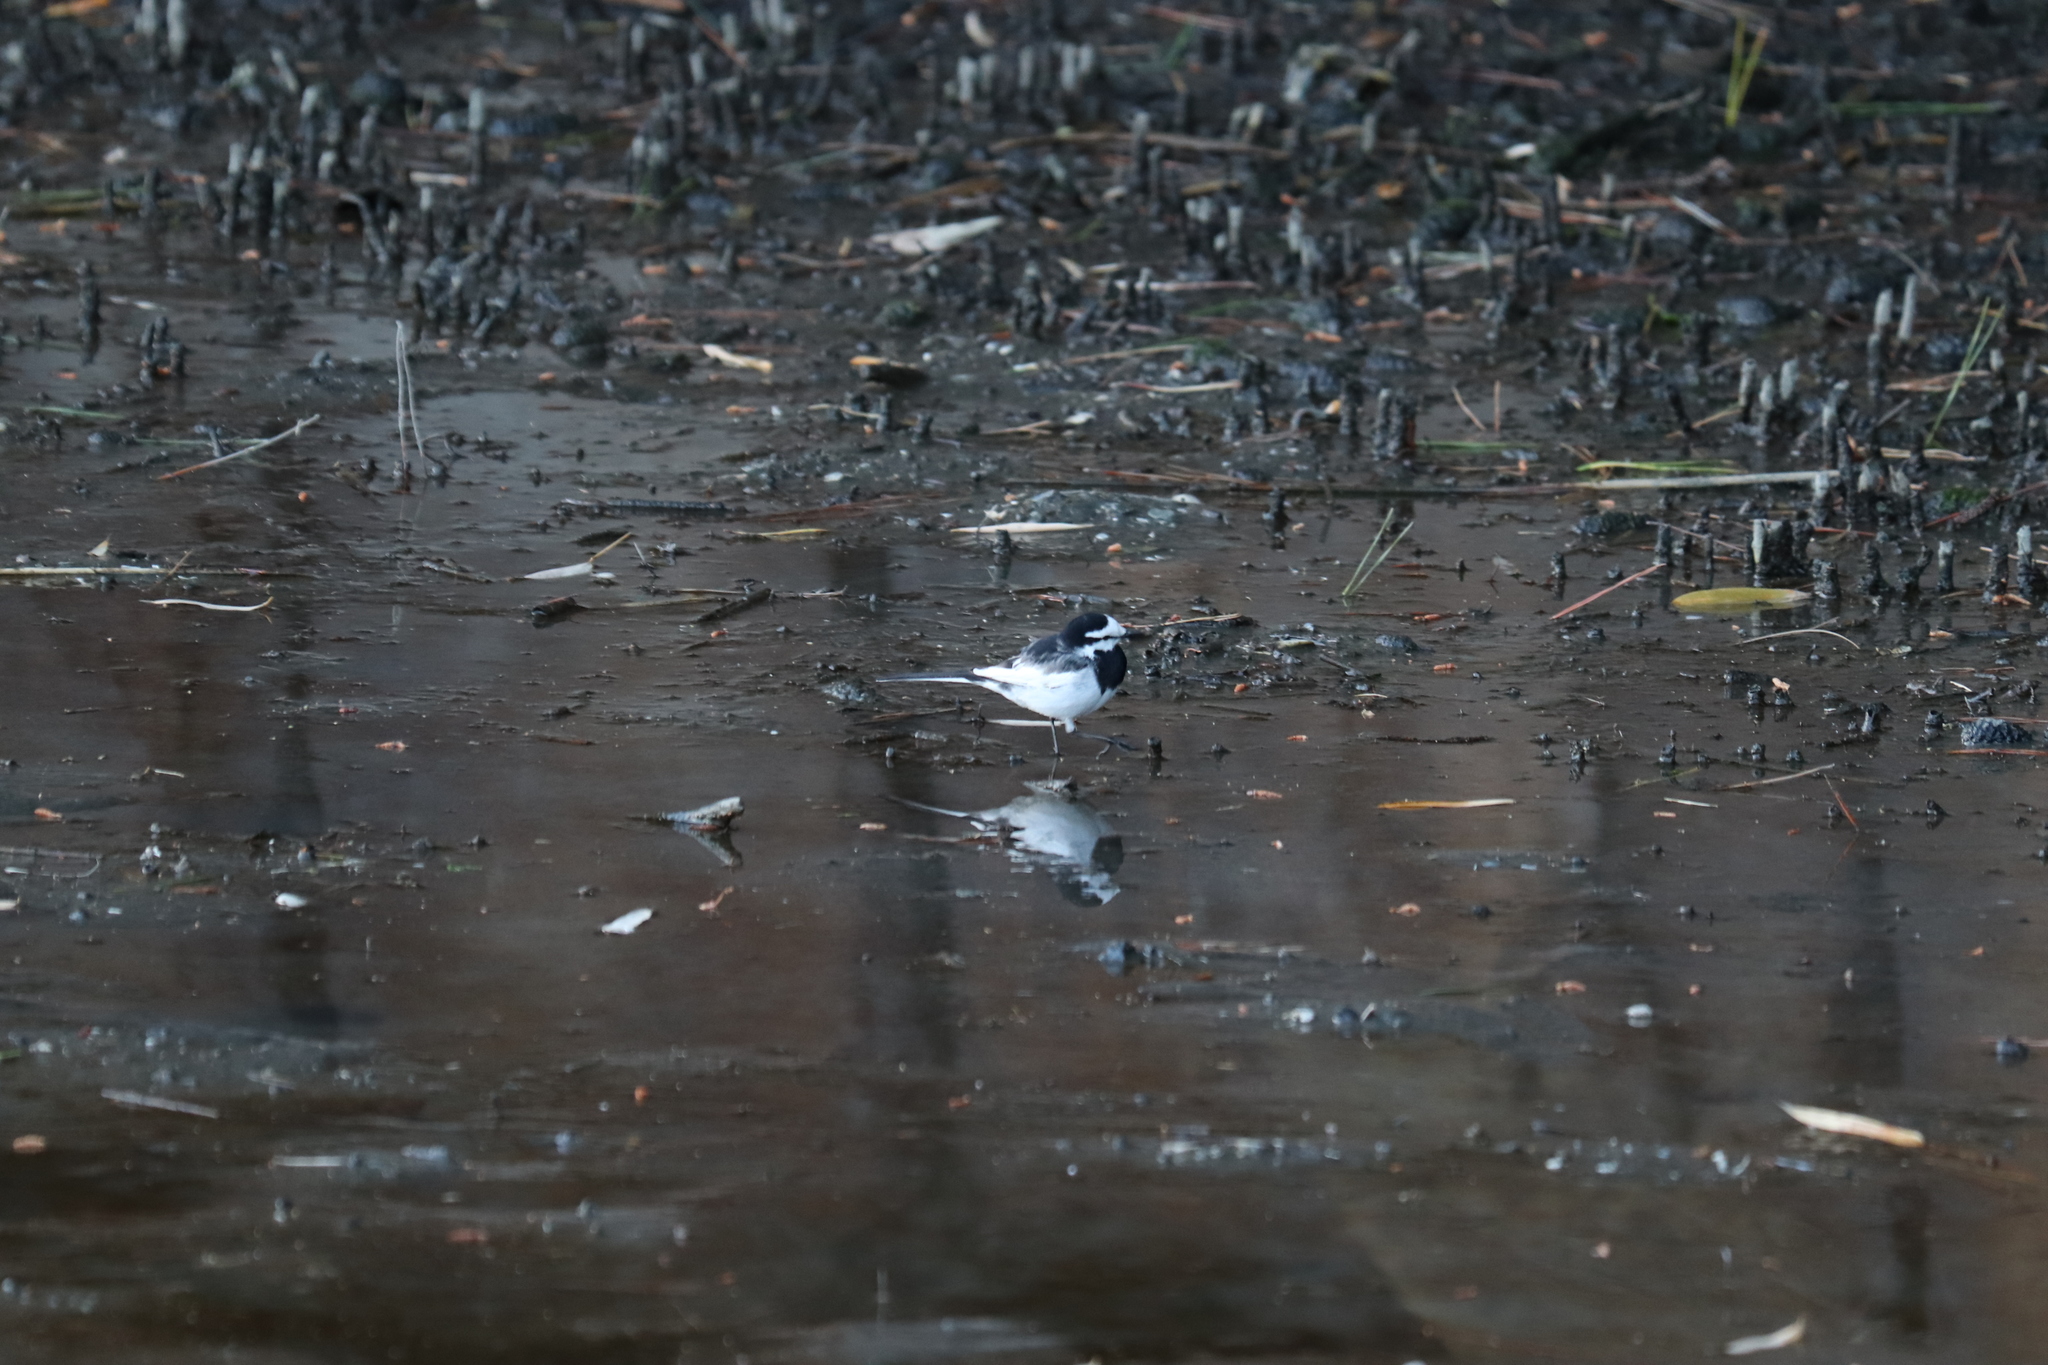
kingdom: Animalia
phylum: Chordata
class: Aves
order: Passeriformes
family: Motacillidae
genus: Motacilla
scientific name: Motacilla alba
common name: White wagtail
